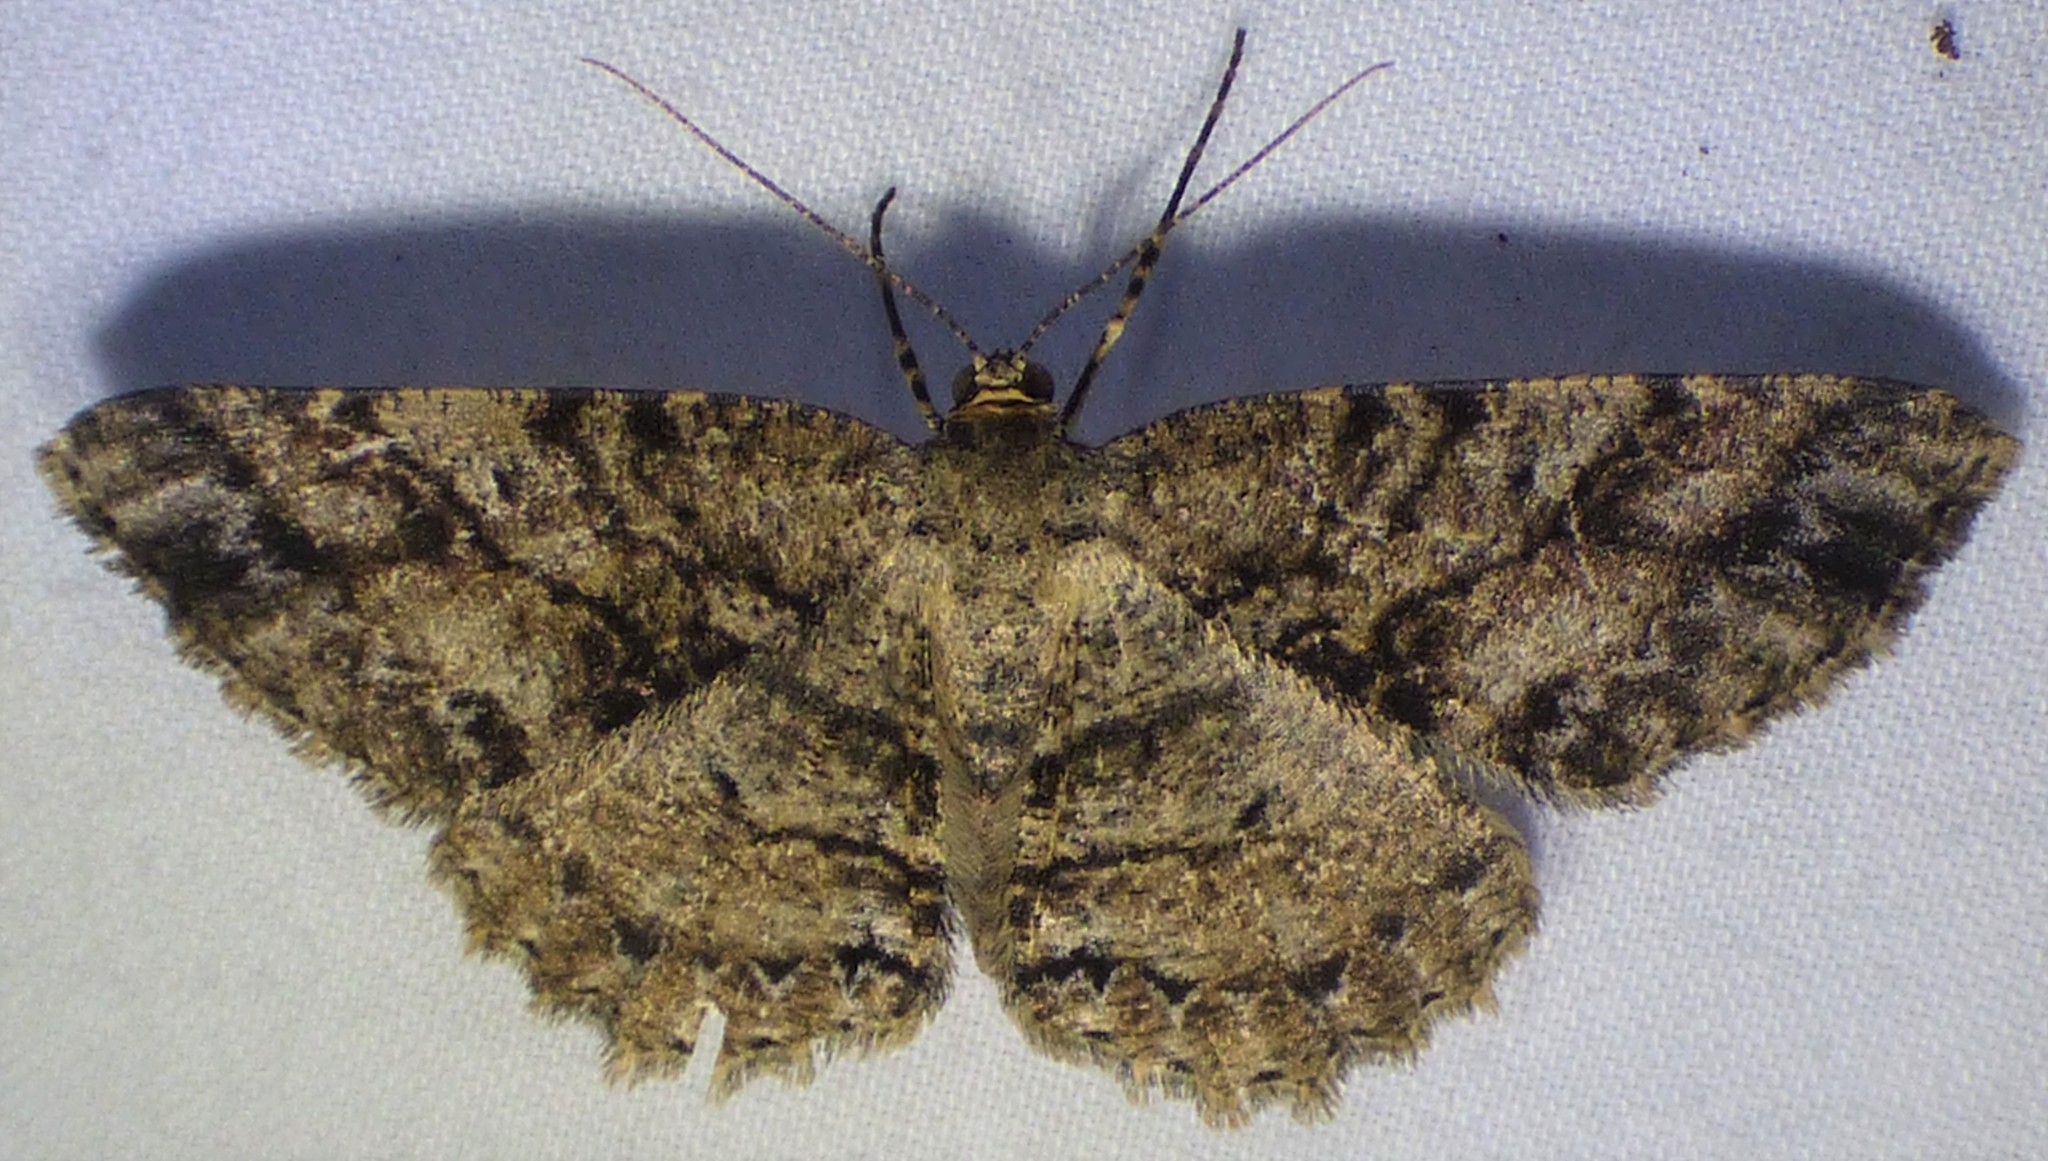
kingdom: Animalia
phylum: Arthropoda
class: Insecta
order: Lepidoptera
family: Geometridae
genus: Melanolophia
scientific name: Melanolophia canadaria
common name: Canadian melanolophia
